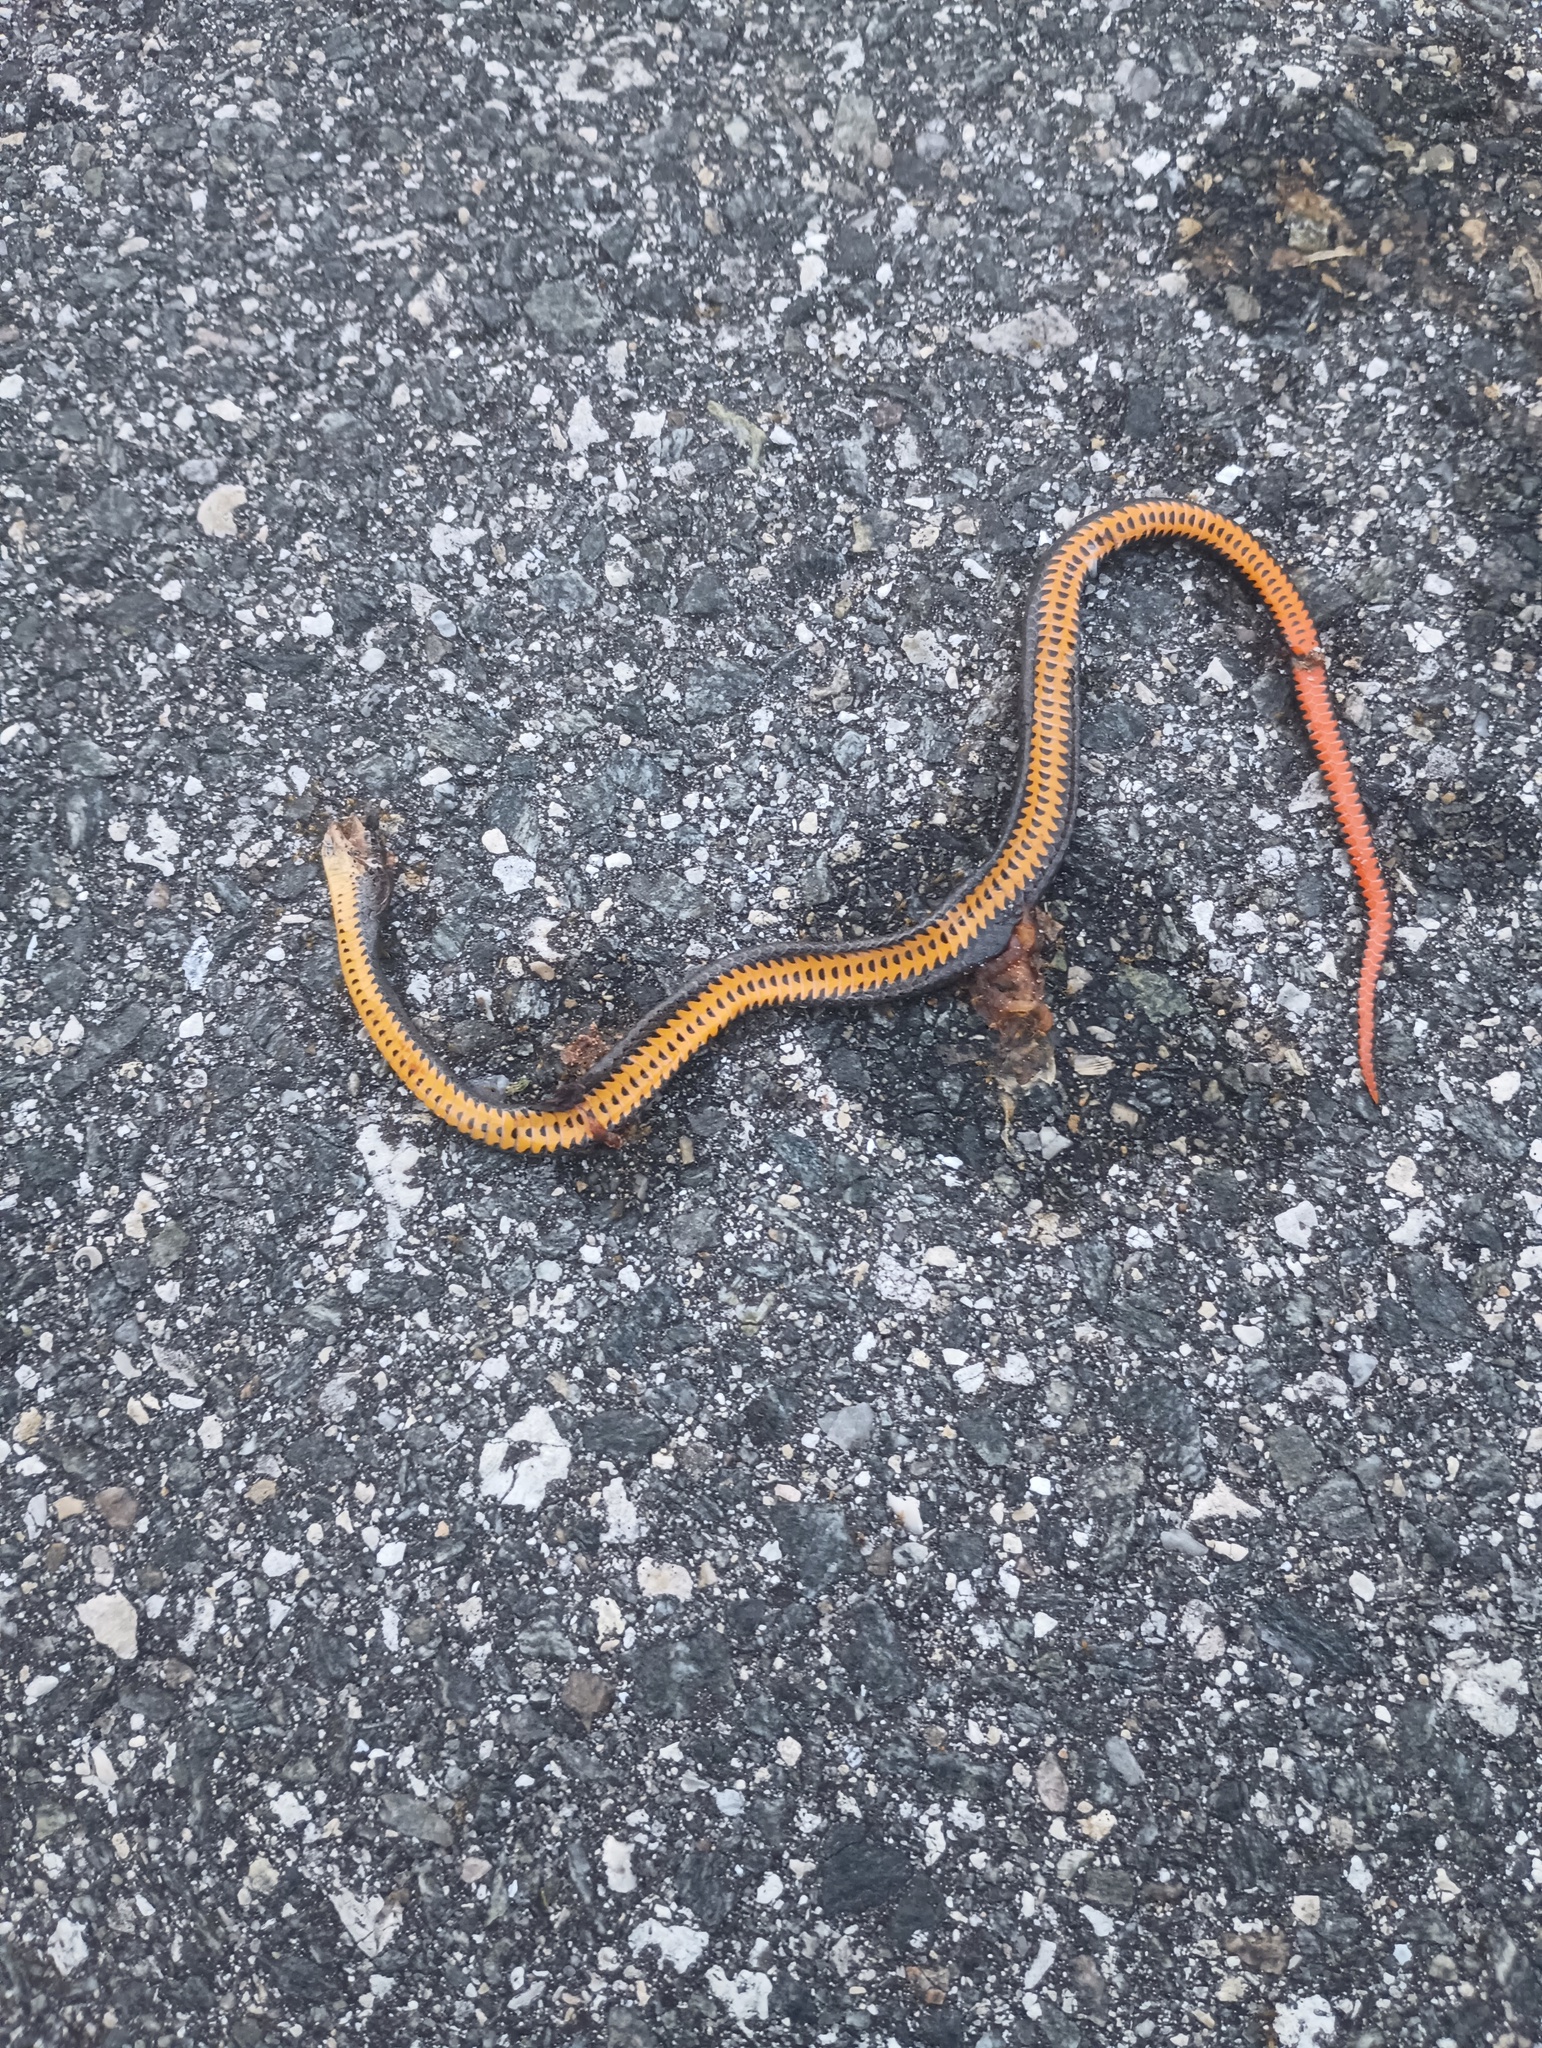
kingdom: Animalia
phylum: Chordata
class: Squamata
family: Colubridae
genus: Diadophis
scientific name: Diadophis punctatus
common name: Ringneck snake
